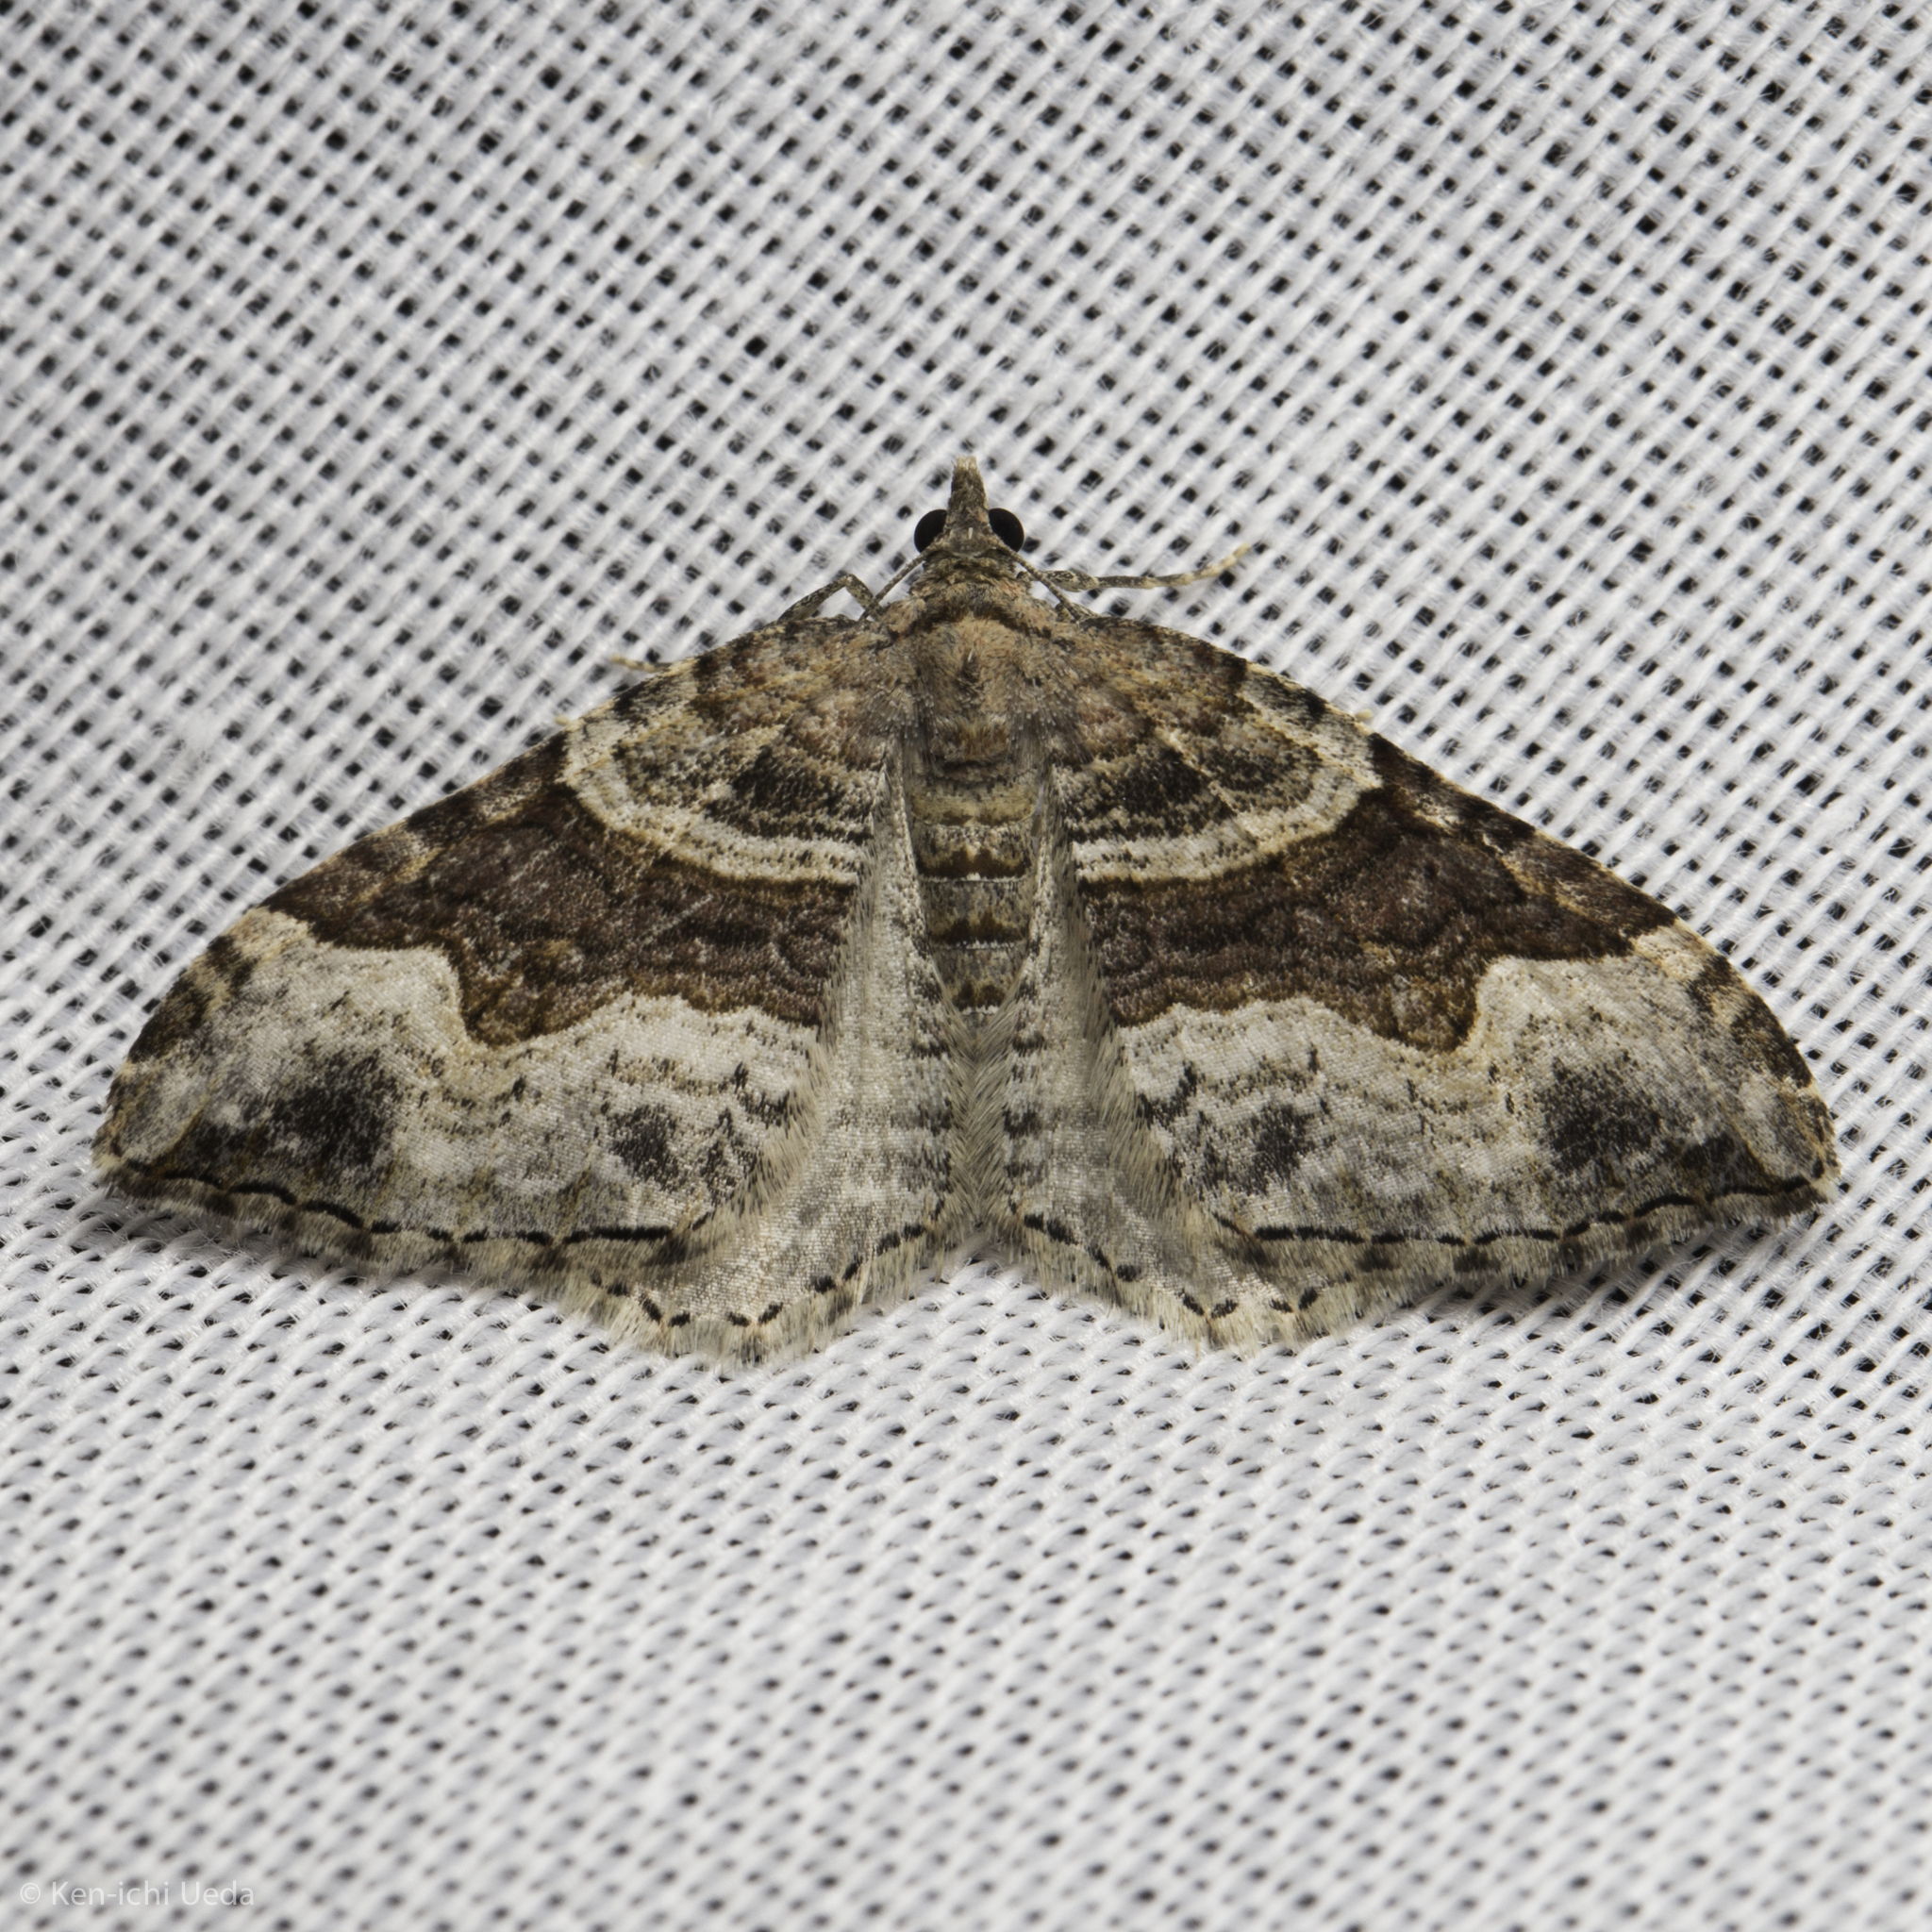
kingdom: Animalia
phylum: Arthropoda
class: Insecta
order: Lepidoptera
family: Geometridae
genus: Xanthorhoe
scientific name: Xanthorhoe defensaria
